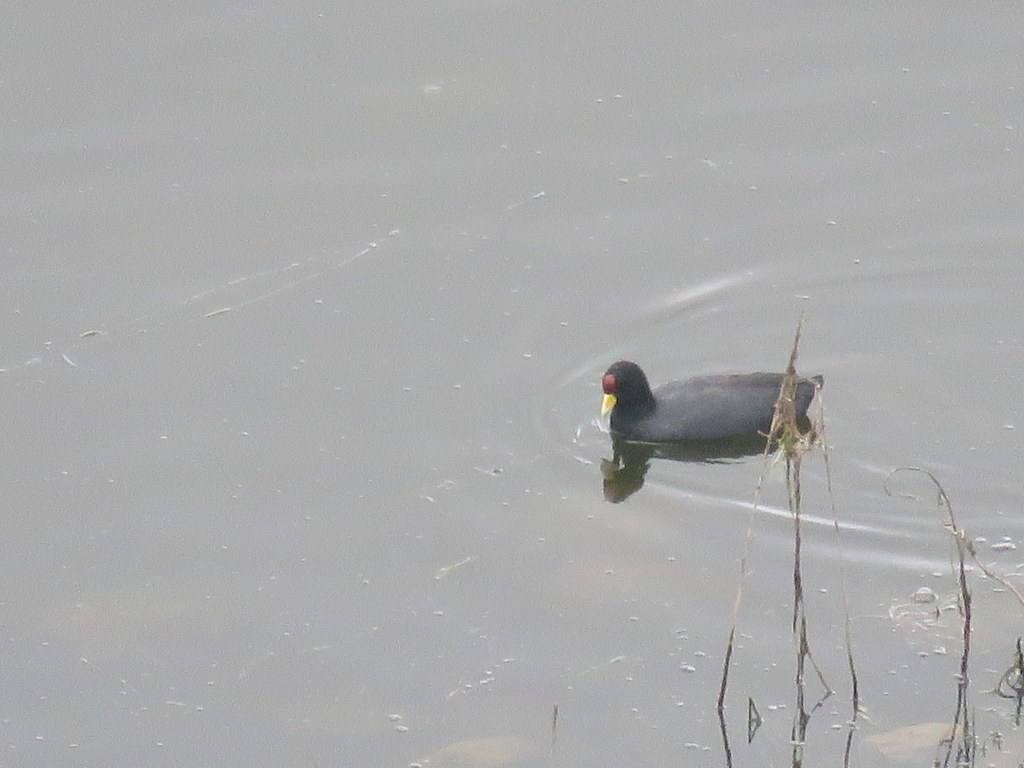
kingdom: Animalia
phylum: Chordata
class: Aves
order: Gruiformes
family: Rallidae
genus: Fulica
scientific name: Fulica ardesiaca
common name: Andean coot
